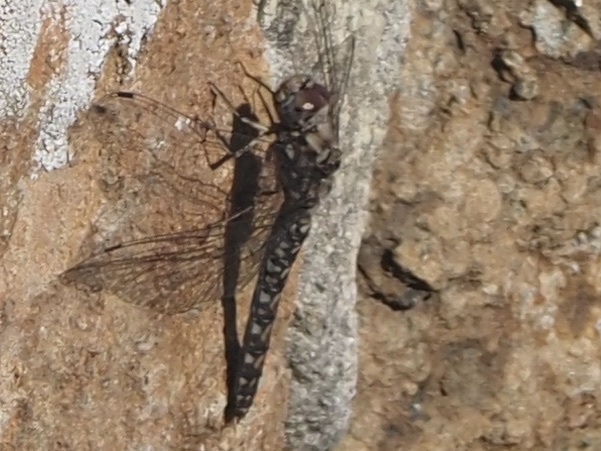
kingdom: Animalia
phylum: Arthropoda
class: Insecta
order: Odonata
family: Libellulidae
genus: Paltothemis
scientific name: Paltothemis lineatipes
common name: Red rock skimmer
